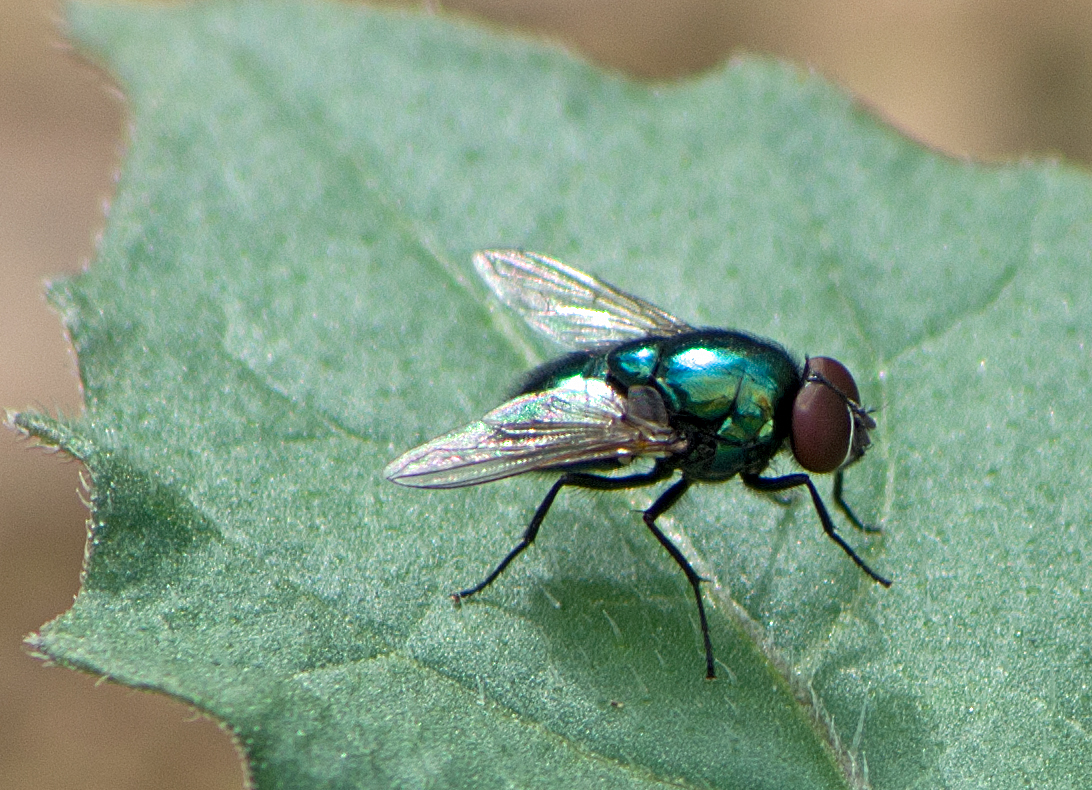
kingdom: Animalia
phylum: Arthropoda
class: Insecta
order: Diptera
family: Muscidae
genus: Pyrellia
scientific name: Pyrellia vivida
